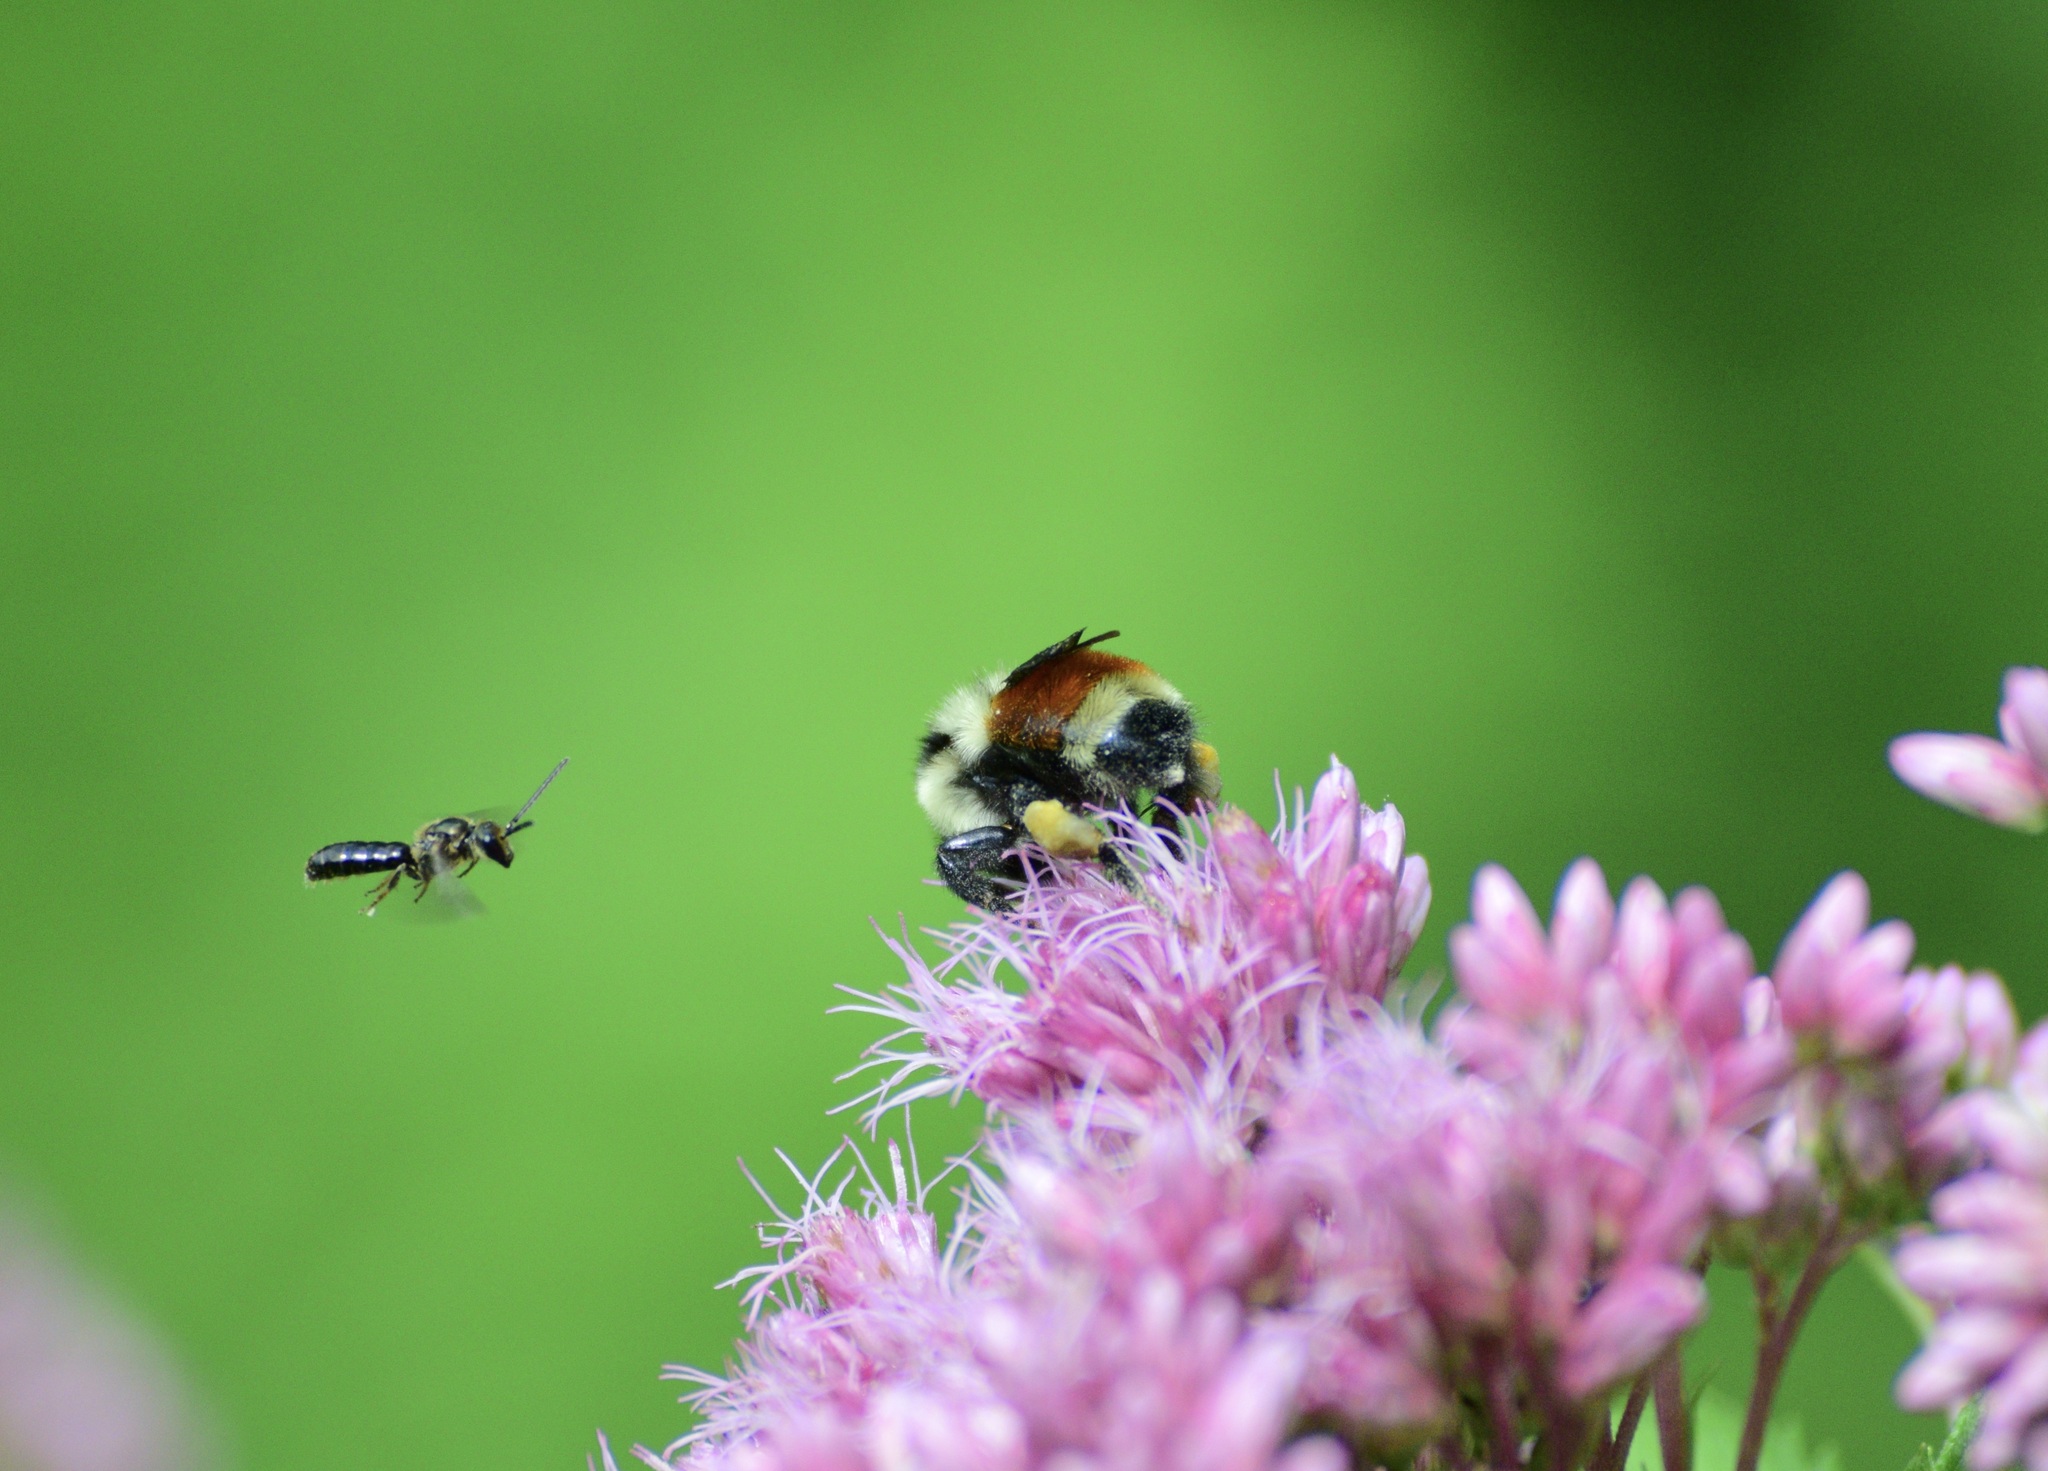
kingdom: Animalia
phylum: Arthropoda
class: Insecta
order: Hymenoptera
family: Apidae
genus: Bombus
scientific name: Bombus ternarius
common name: Tri-colored bumble bee
